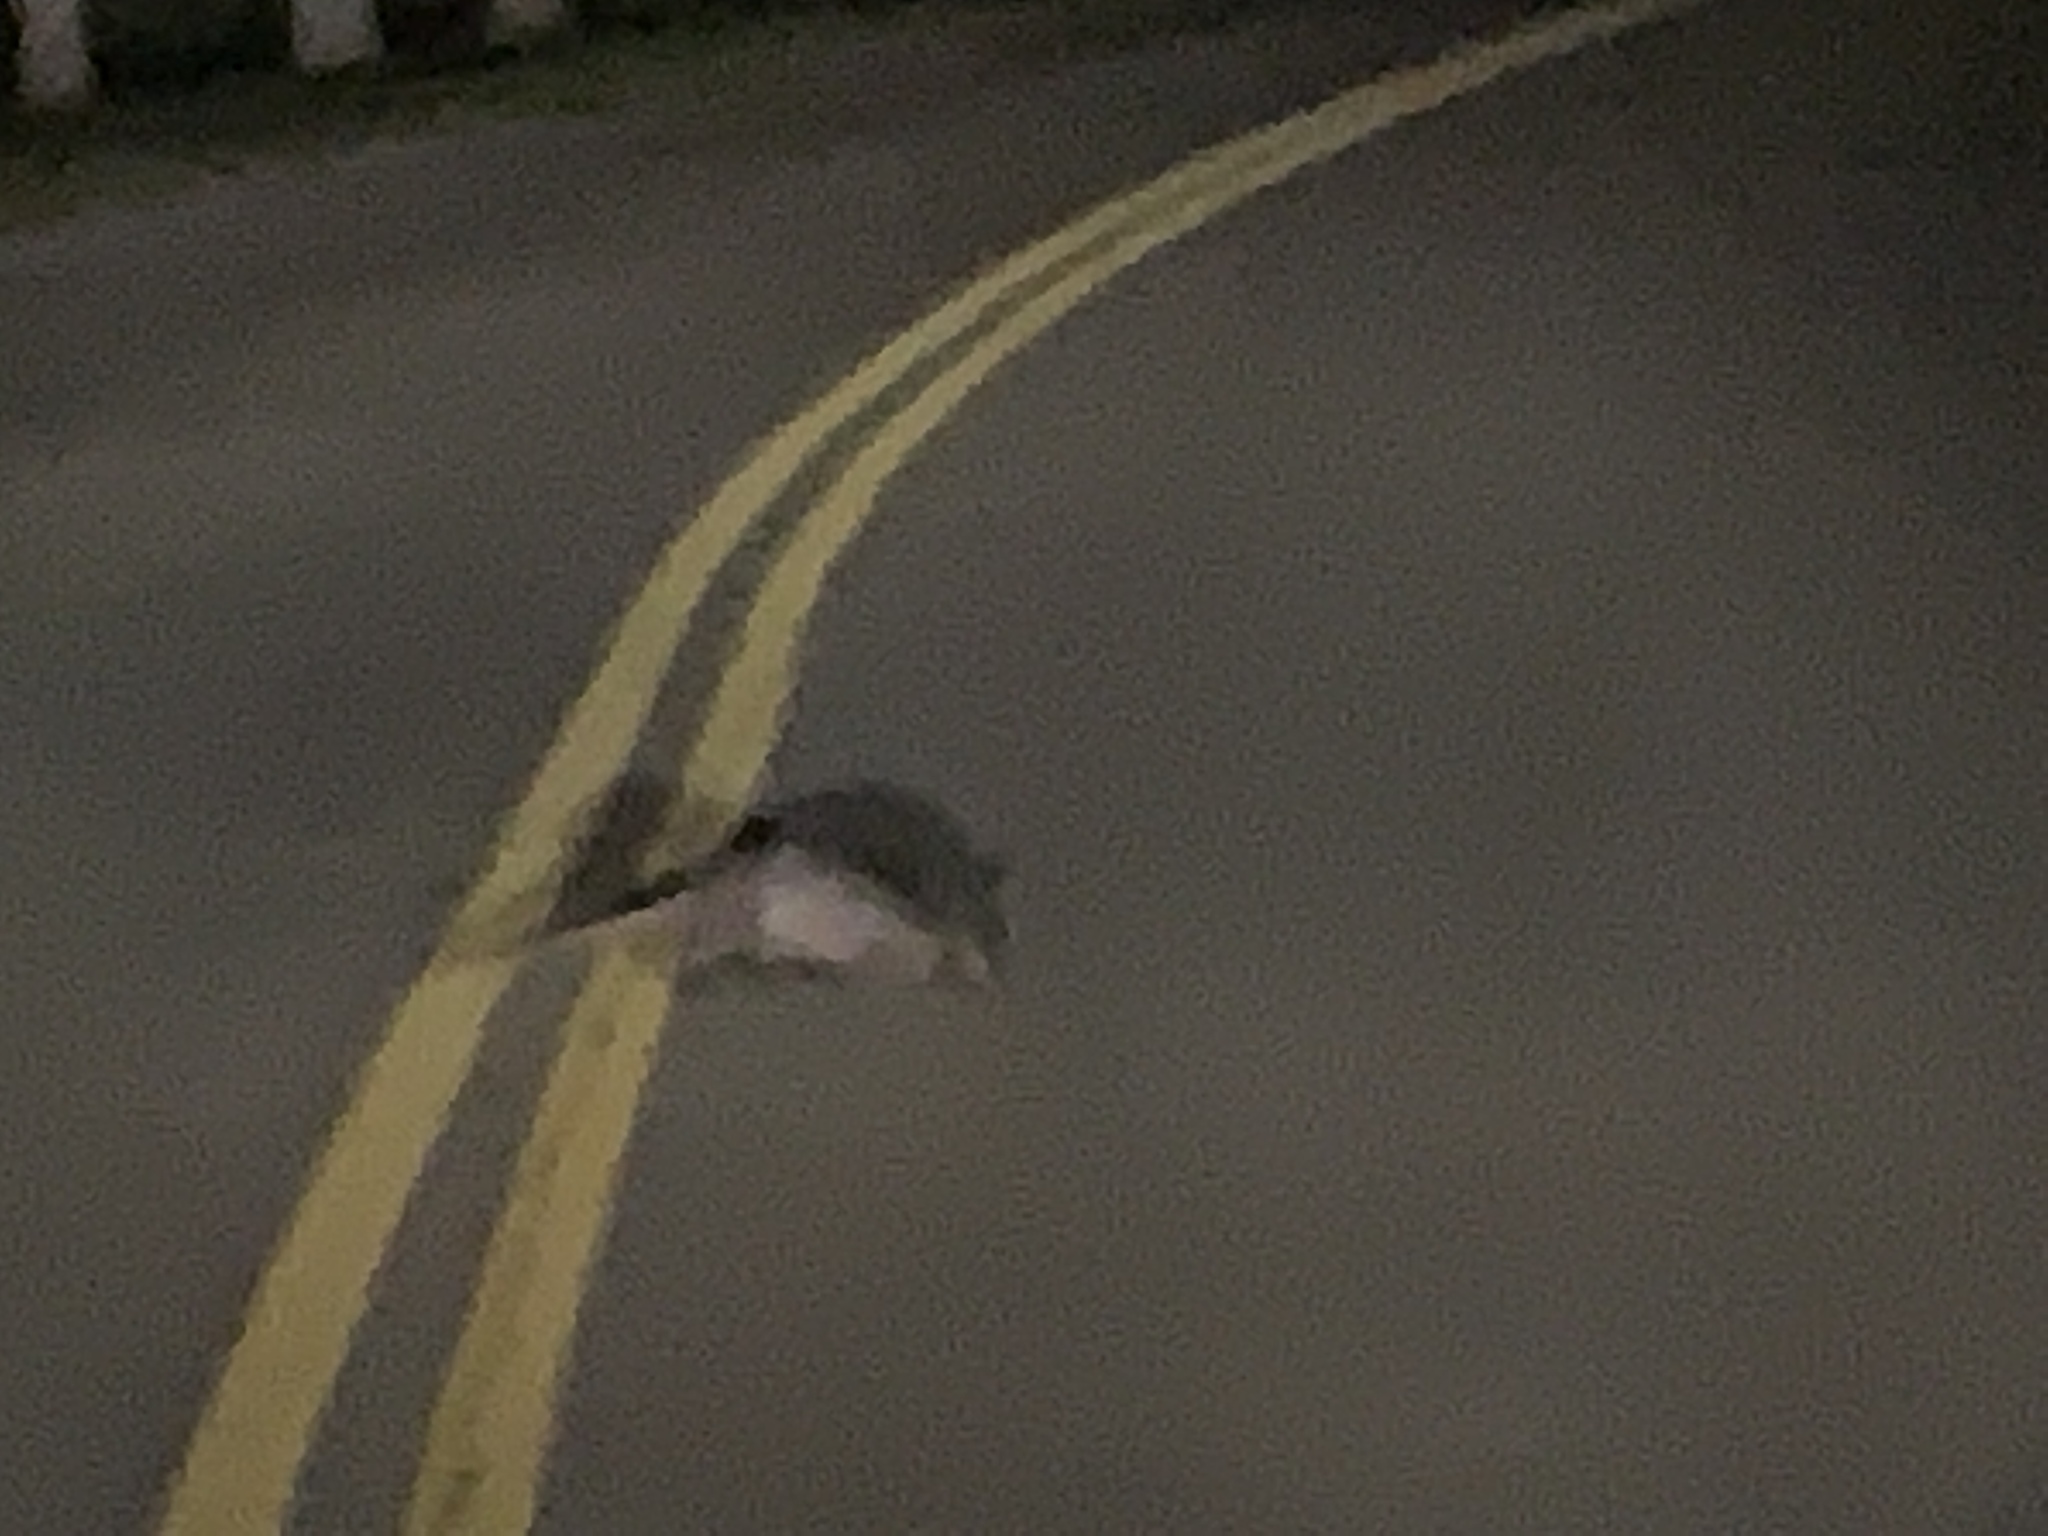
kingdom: Animalia
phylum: Chordata
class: Mammalia
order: Cingulata
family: Dasypodidae
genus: Dasypus
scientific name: Dasypus novemcinctus
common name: Nine-banded armadillo
